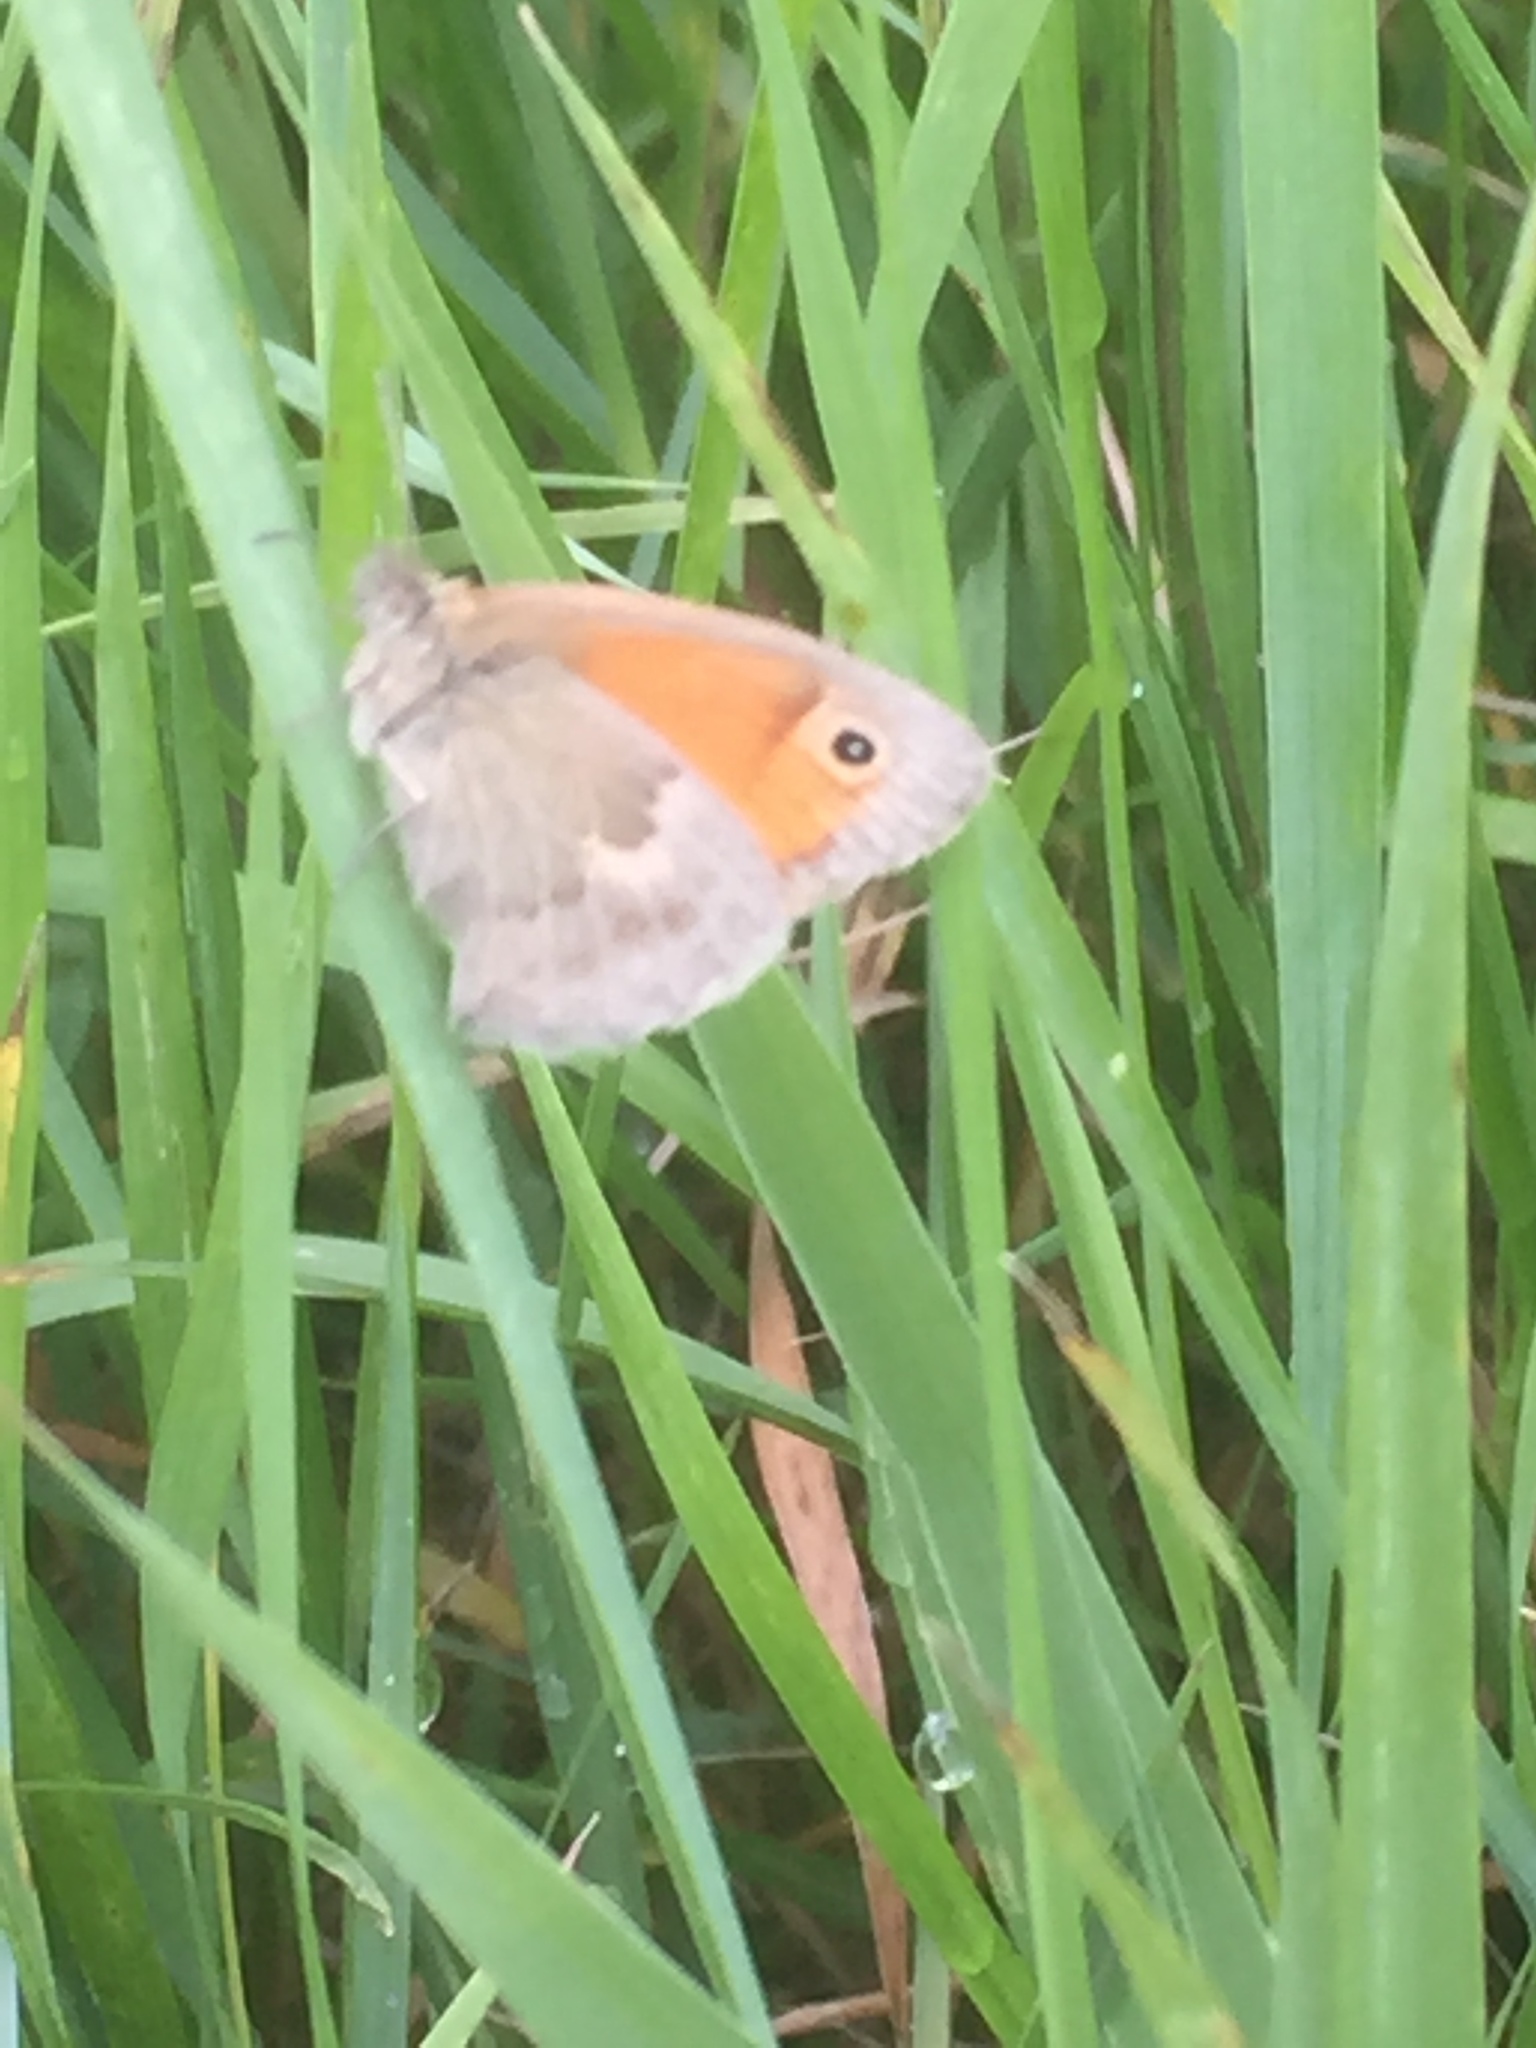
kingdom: Animalia
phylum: Arthropoda
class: Insecta
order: Lepidoptera
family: Nymphalidae
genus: Coenonympha
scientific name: Coenonympha pamphilus
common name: Small heath
